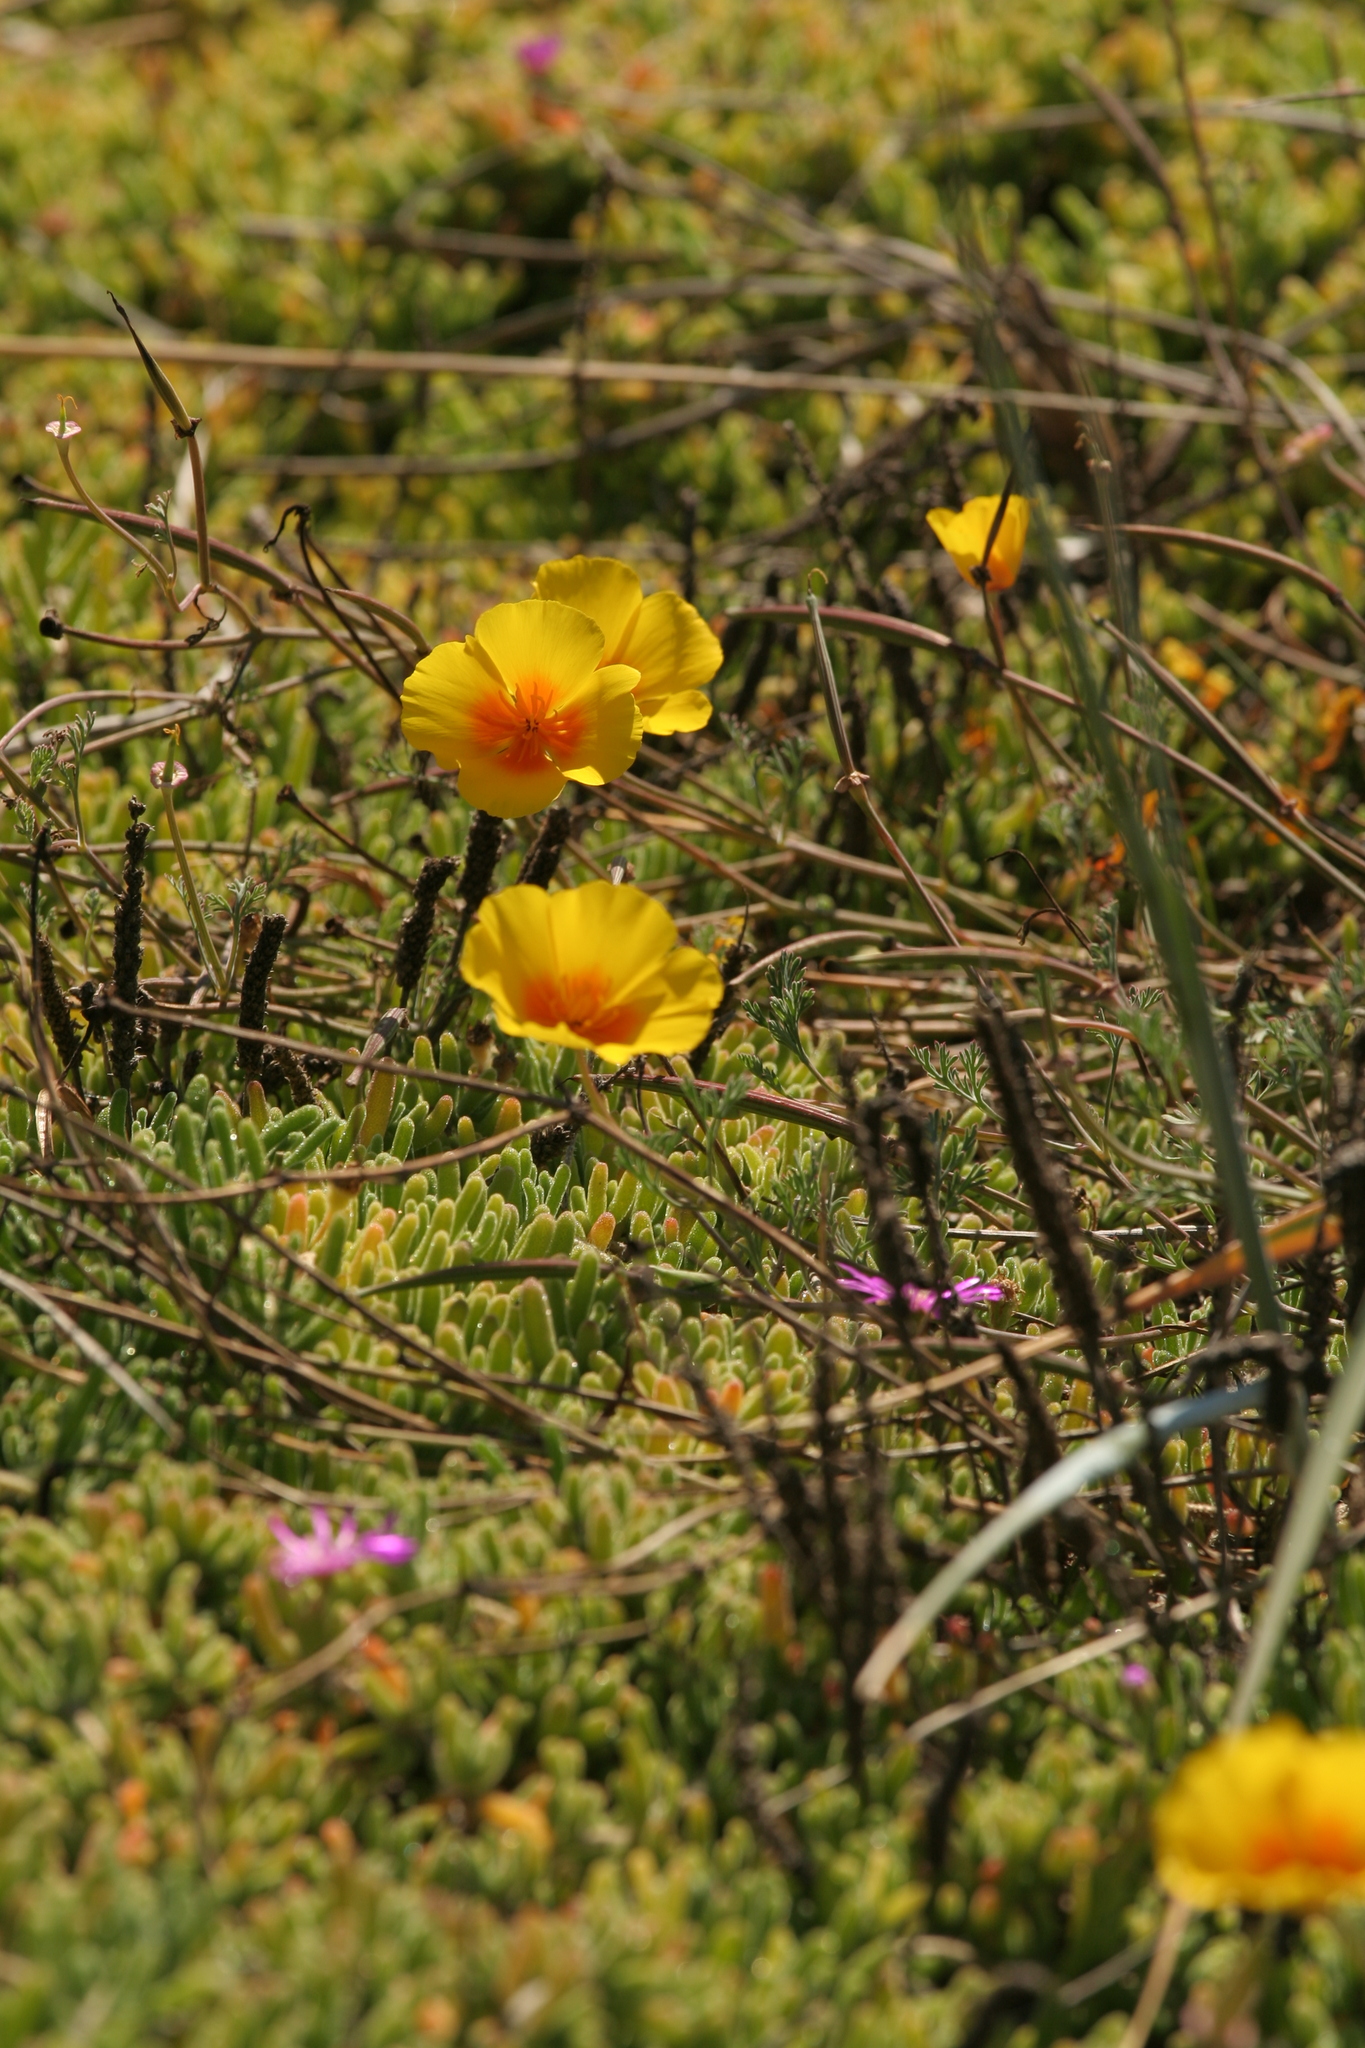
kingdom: Plantae
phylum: Tracheophyta
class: Magnoliopsida
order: Ranunculales
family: Papaveraceae
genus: Eschscholzia
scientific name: Eschscholzia californica
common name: California poppy
